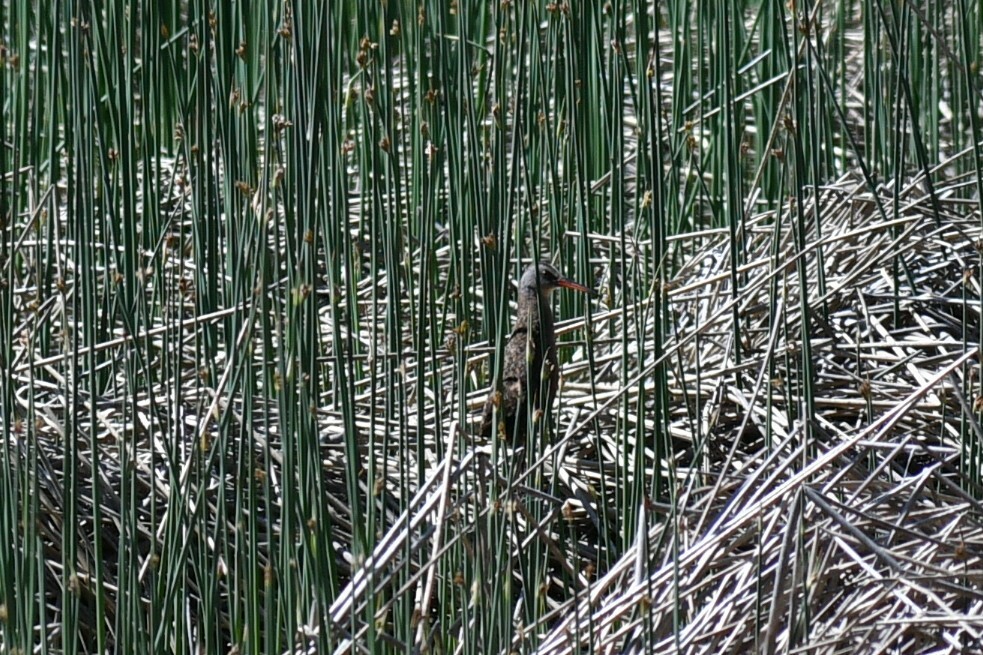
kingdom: Animalia
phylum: Chordata
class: Aves
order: Gruiformes
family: Rallidae
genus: Rallus
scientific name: Rallus limicola
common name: Virginia rail
